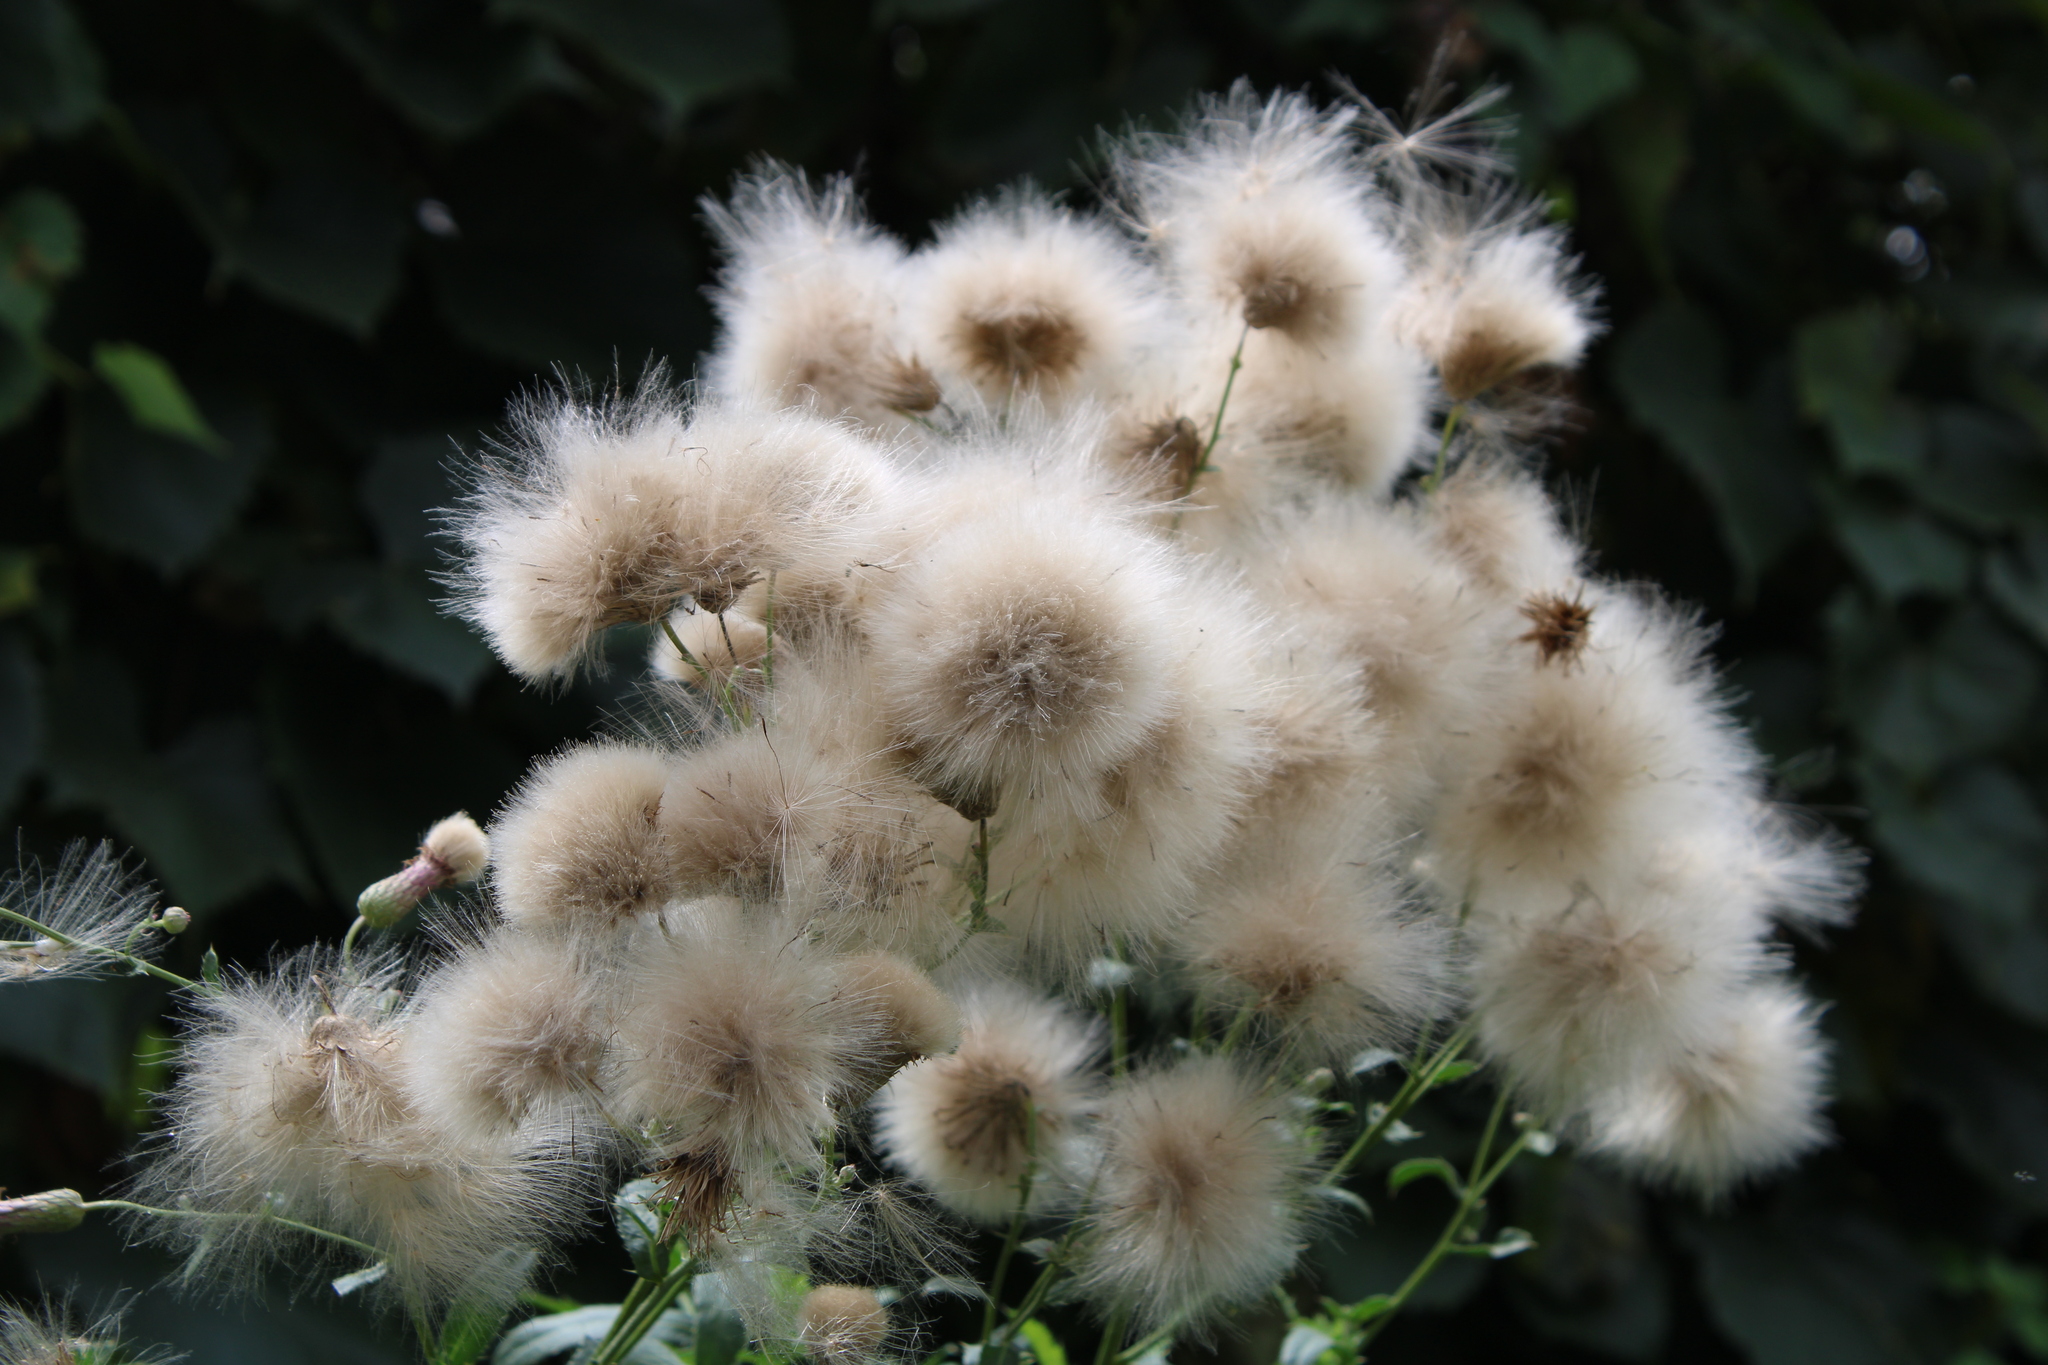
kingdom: Plantae
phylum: Tracheophyta
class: Magnoliopsida
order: Asterales
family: Asteraceae
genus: Cirsium
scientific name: Cirsium arvense
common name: Creeping thistle
